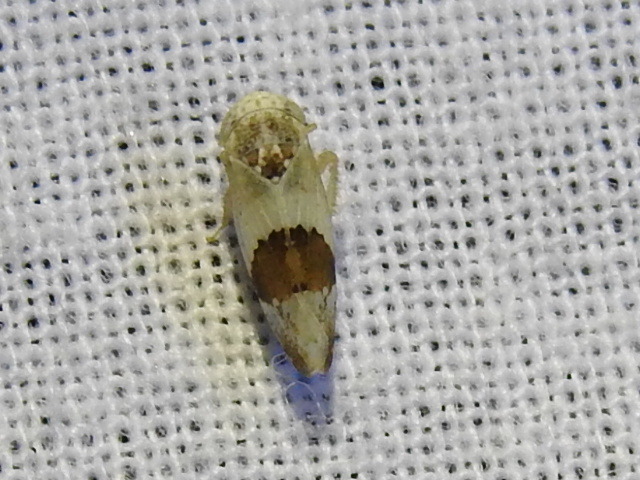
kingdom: Animalia
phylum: Arthropoda
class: Insecta
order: Hemiptera
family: Cicadellidae
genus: Norvellina
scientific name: Norvellina seminuda
